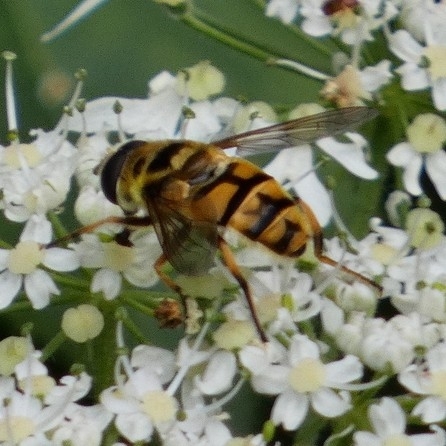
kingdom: Animalia
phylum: Arthropoda
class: Insecta
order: Diptera
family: Syrphidae
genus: Myathropa
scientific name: Myathropa florea
